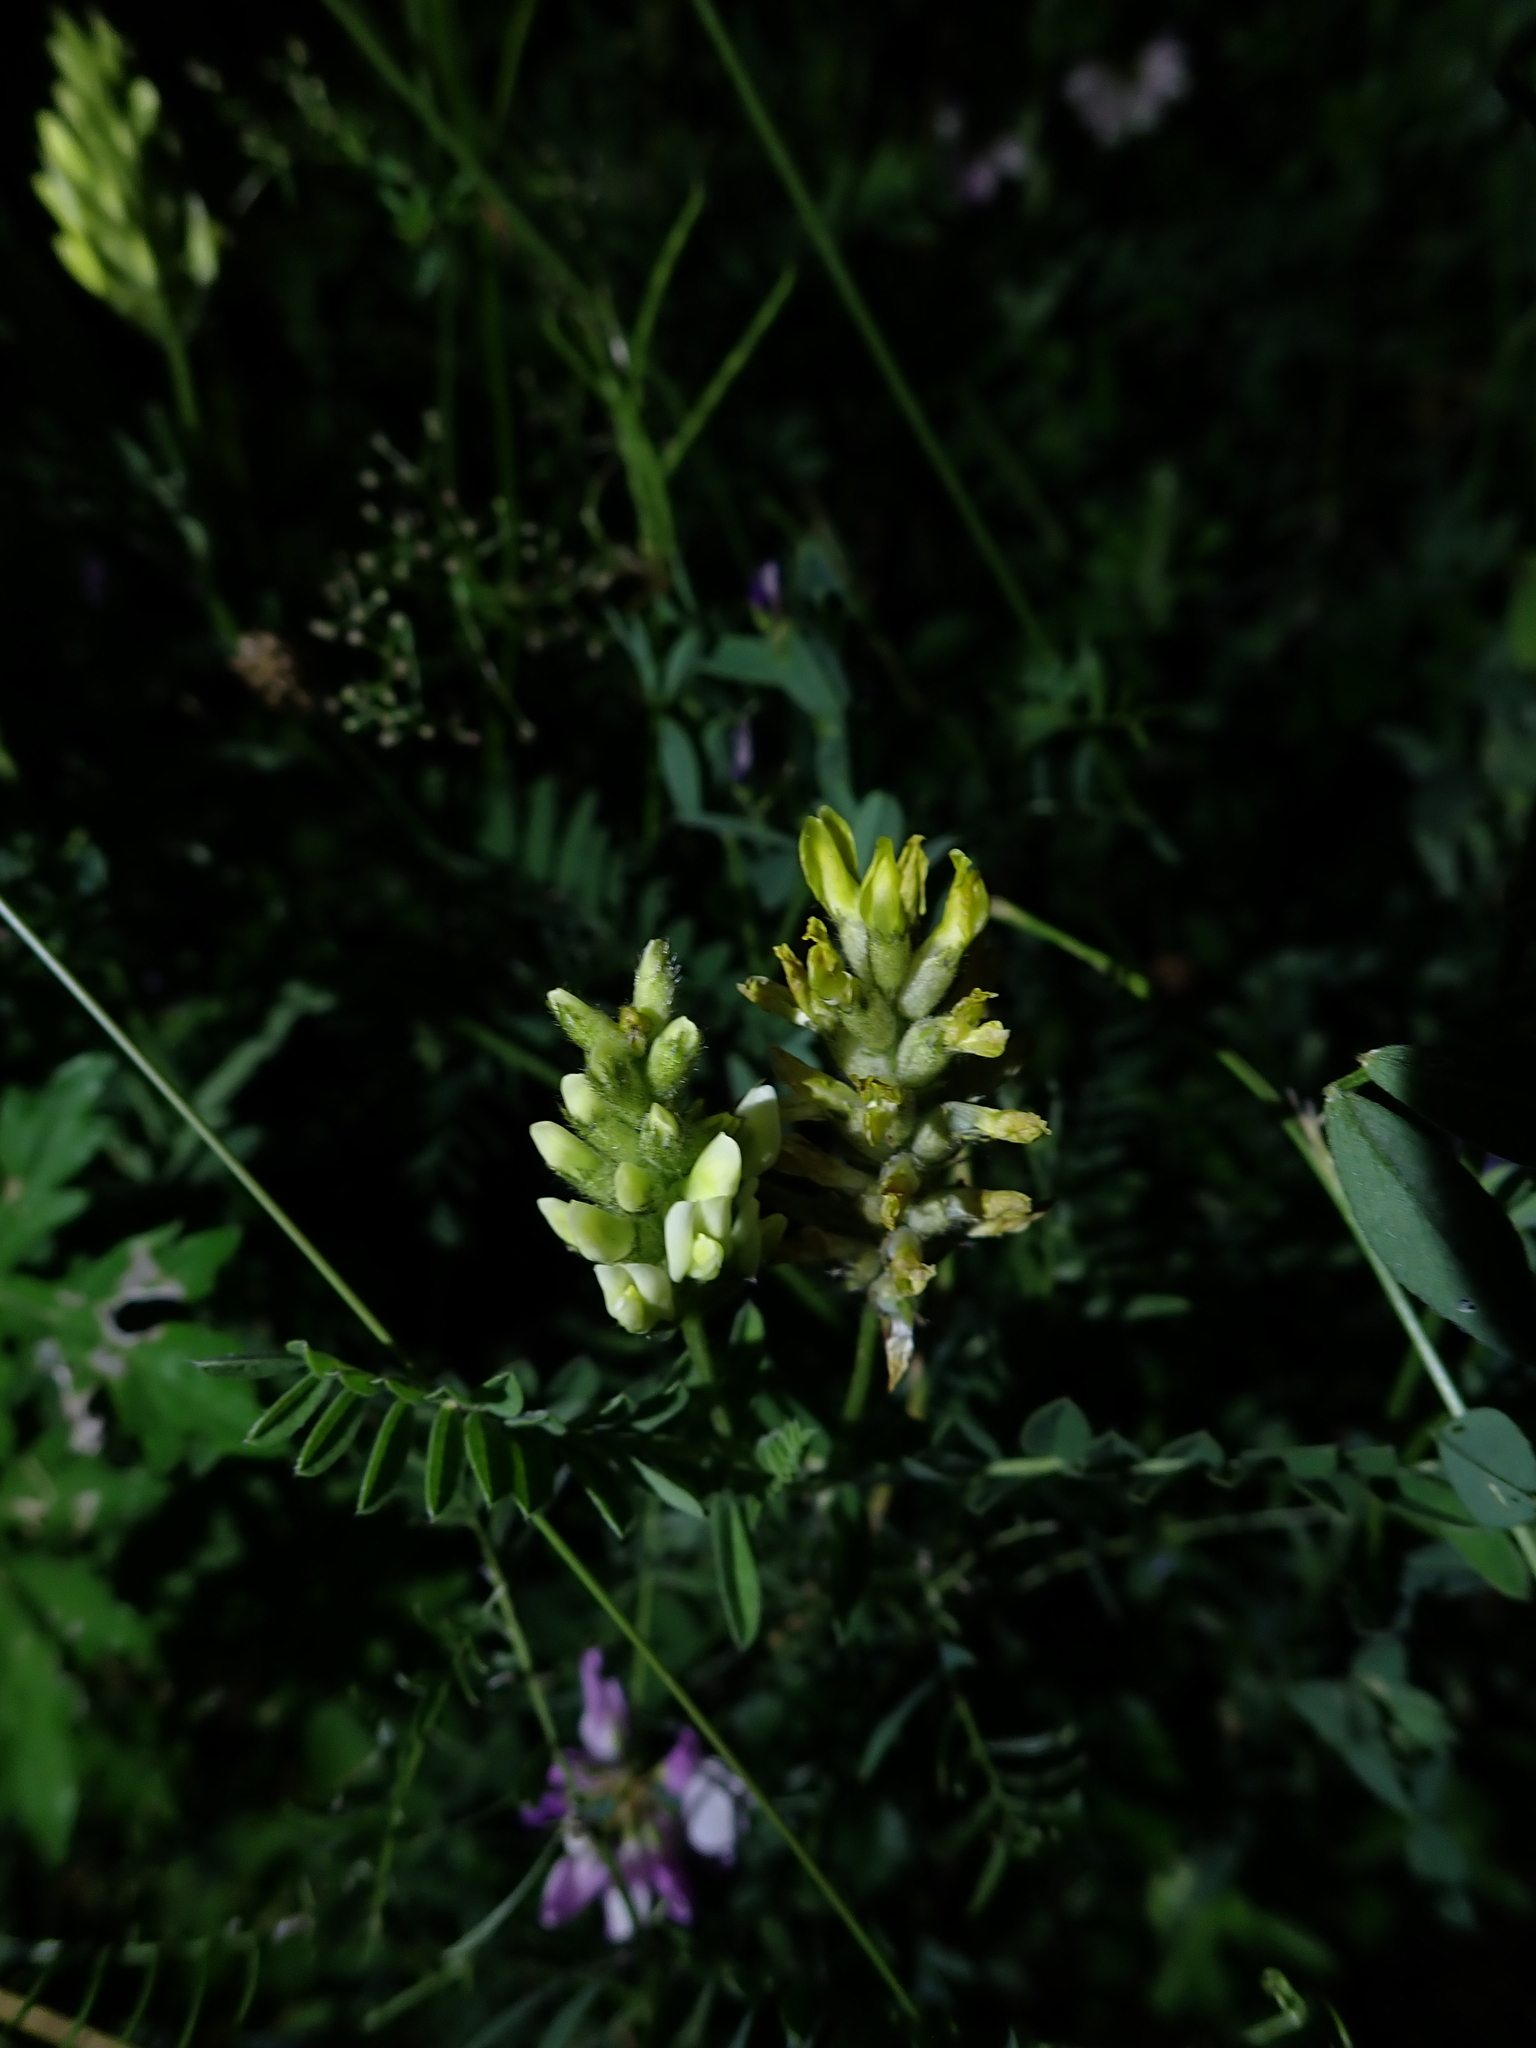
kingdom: Plantae
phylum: Tracheophyta
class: Magnoliopsida
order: Fabales
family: Fabaceae
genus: Astragalus
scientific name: Astragalus cicer
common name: Chick-pea milk-vetch
